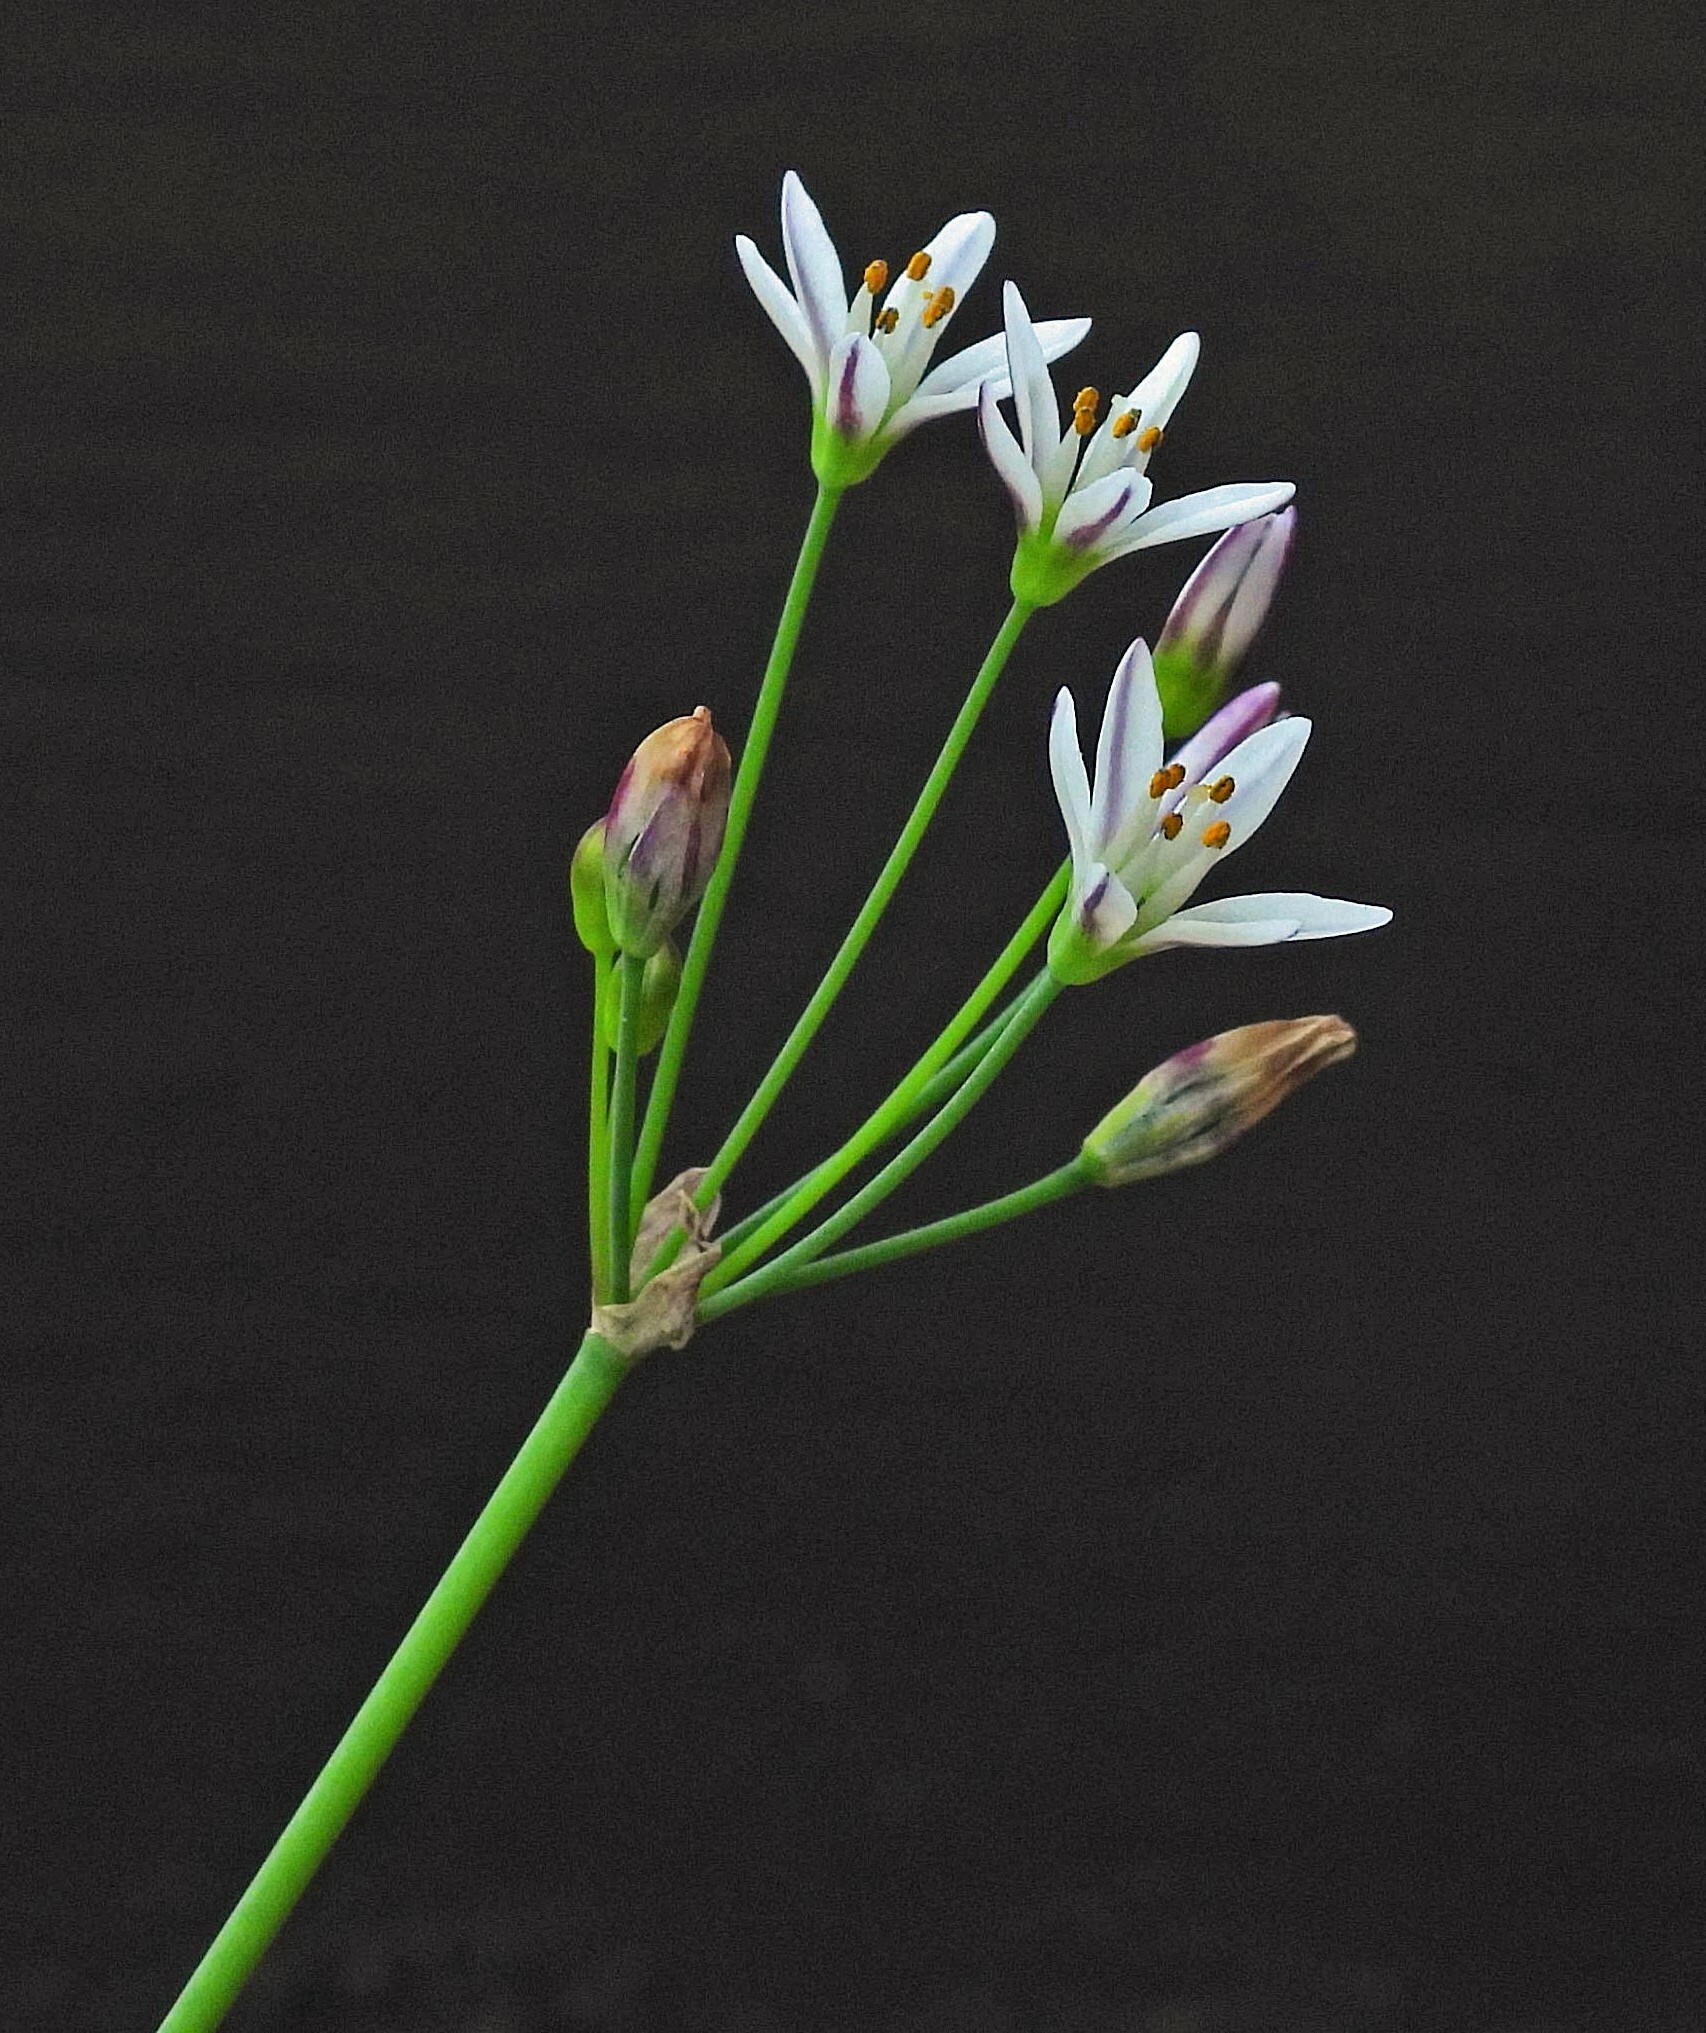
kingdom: Plantae
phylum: Tracheophyta
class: Liliopsida
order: Asparagales
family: Amaryllidaceae
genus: Nothoscordum
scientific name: Nothoscordum gracile
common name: Slender false garlic
